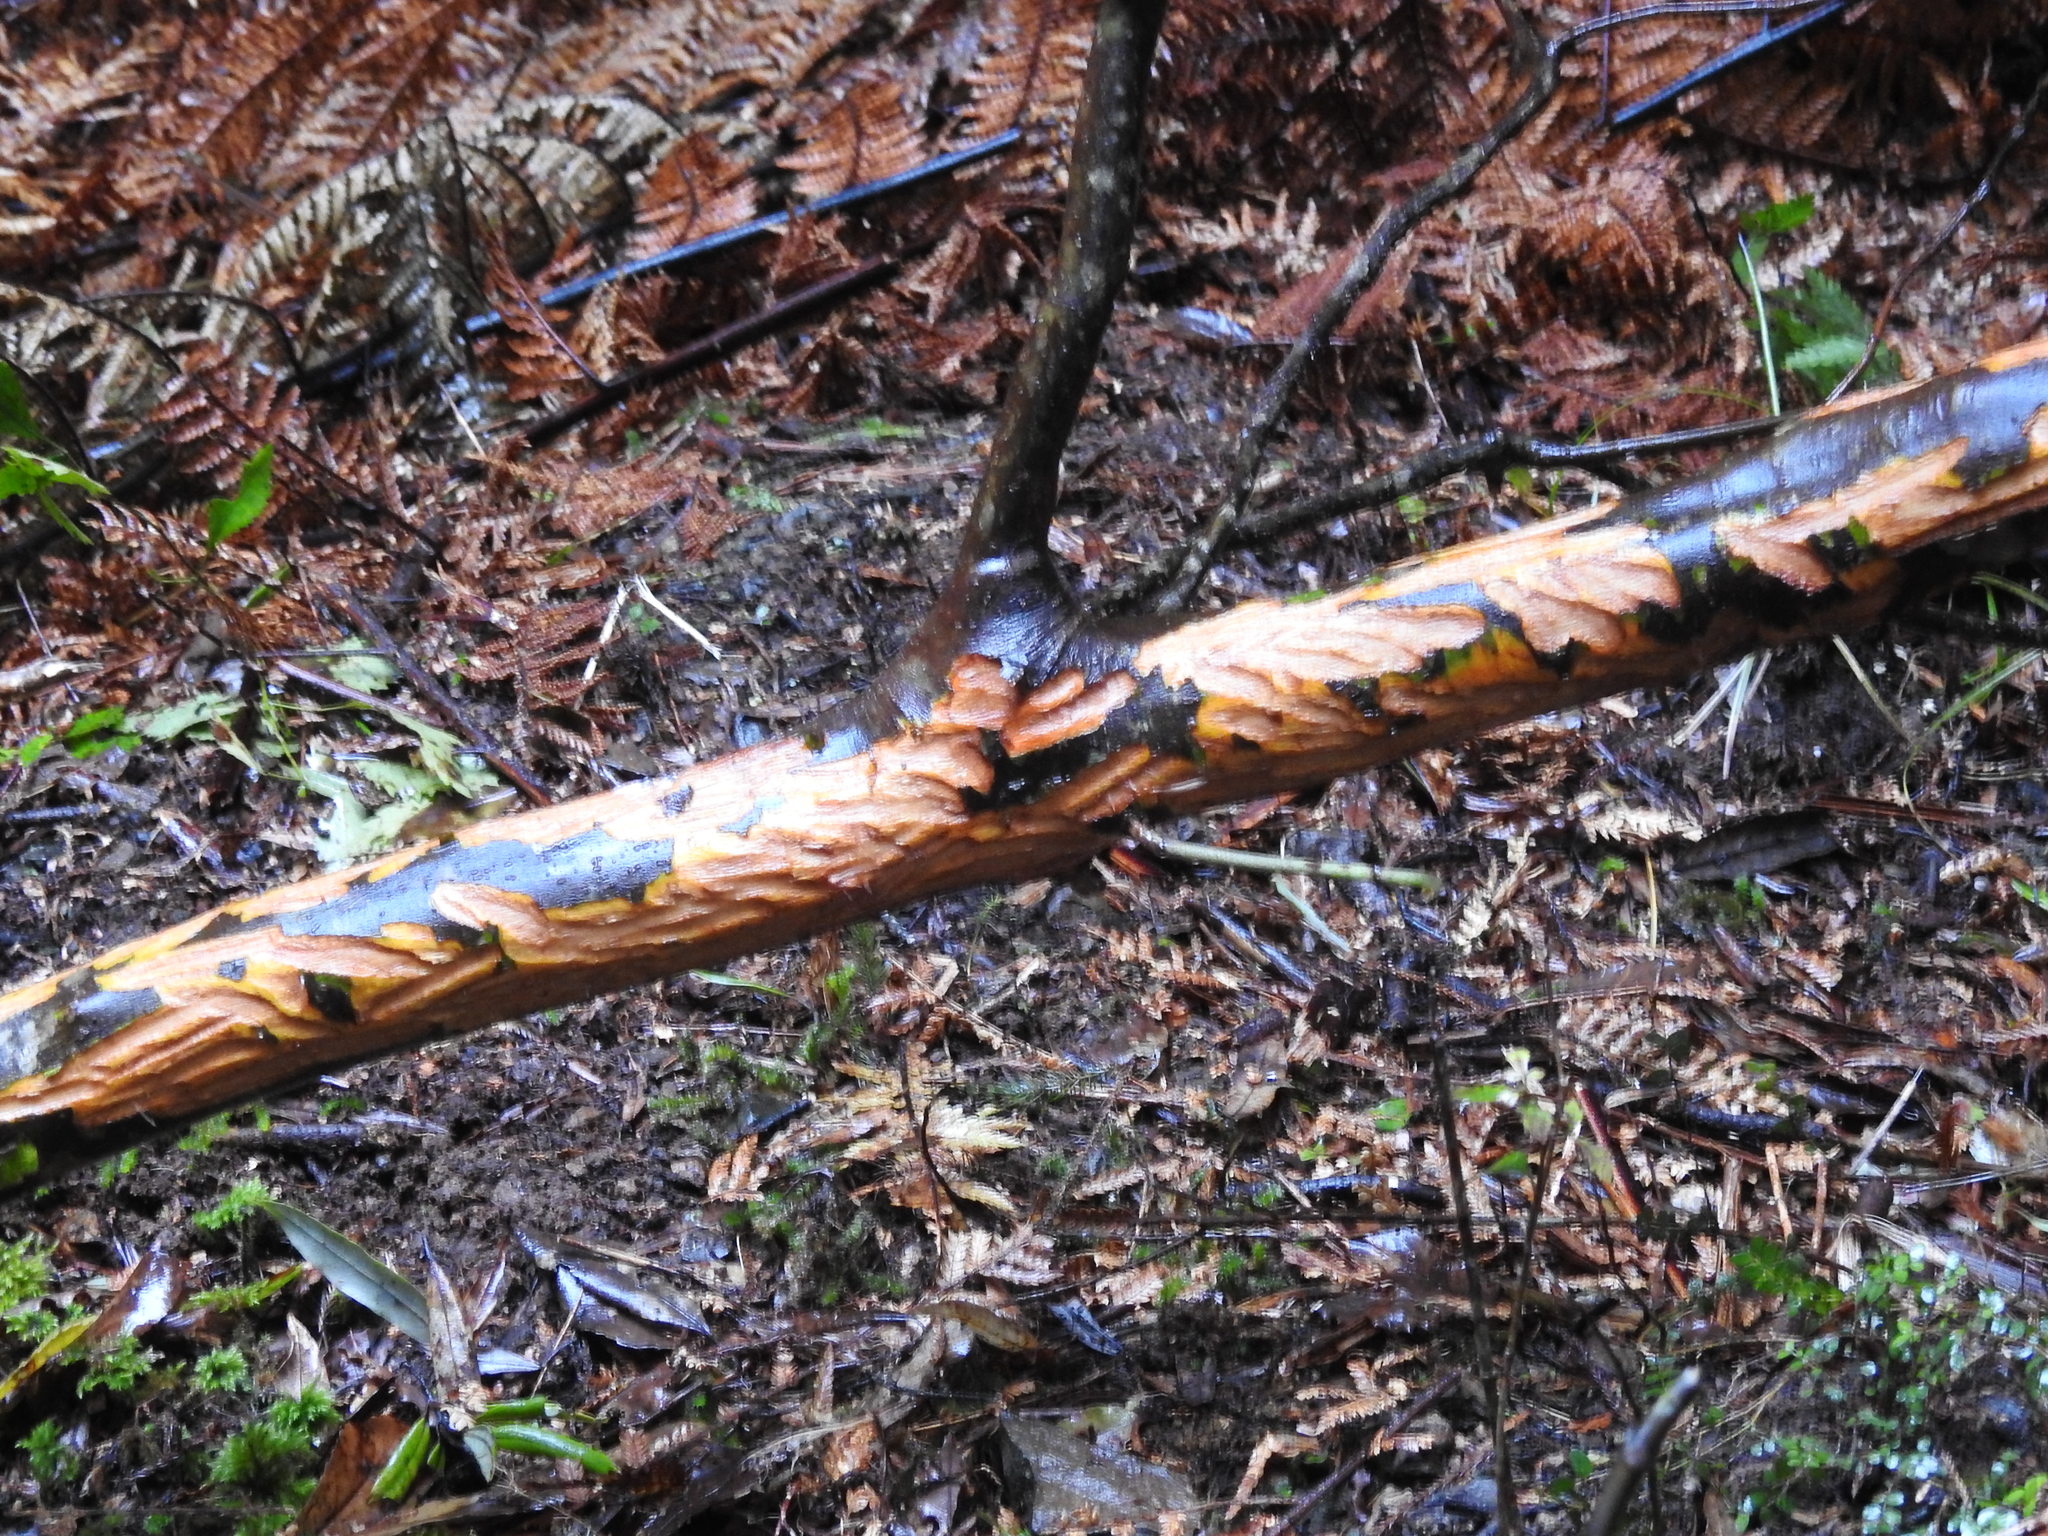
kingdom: Animalia
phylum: Chordata
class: Mammalia
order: Artiodactyla
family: Bovidae
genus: Capra
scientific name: Capra hircus
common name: Domestic goat
